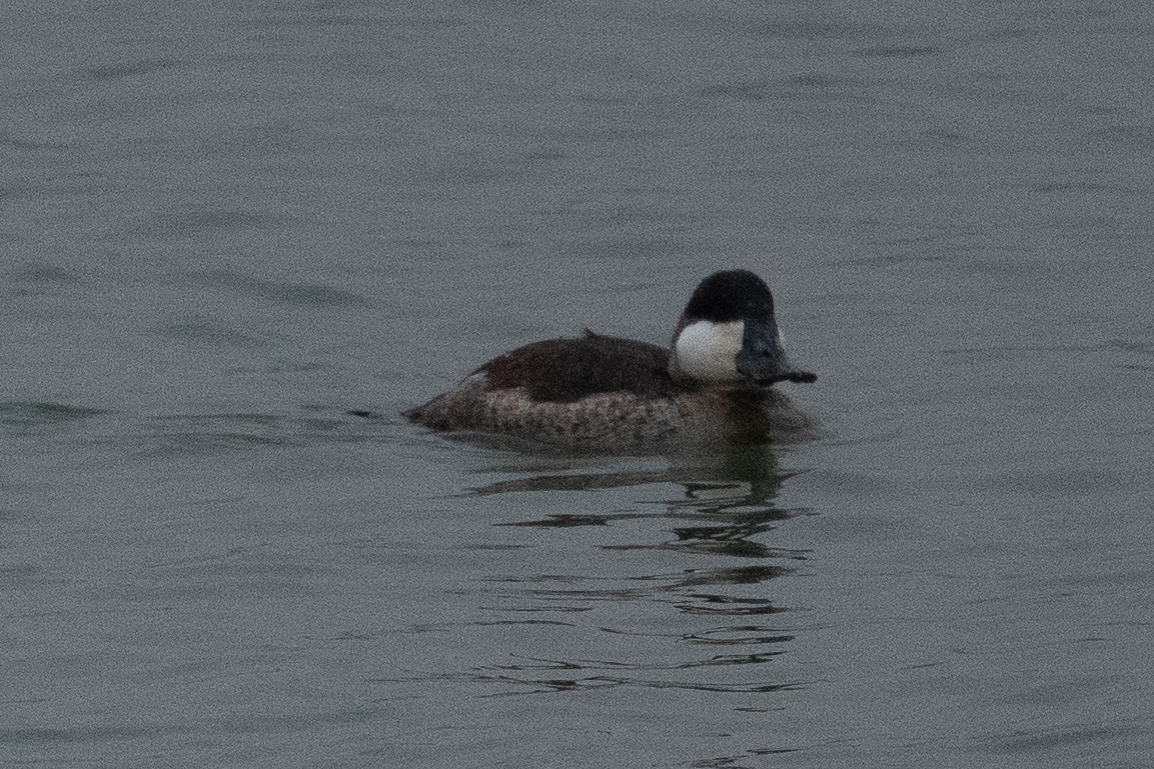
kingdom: Animalia
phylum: Chordata
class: Aves
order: Anseriformes
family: Anatidae
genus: Oxyura
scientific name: Oxyura jamaicensis
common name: Ruddy duck
